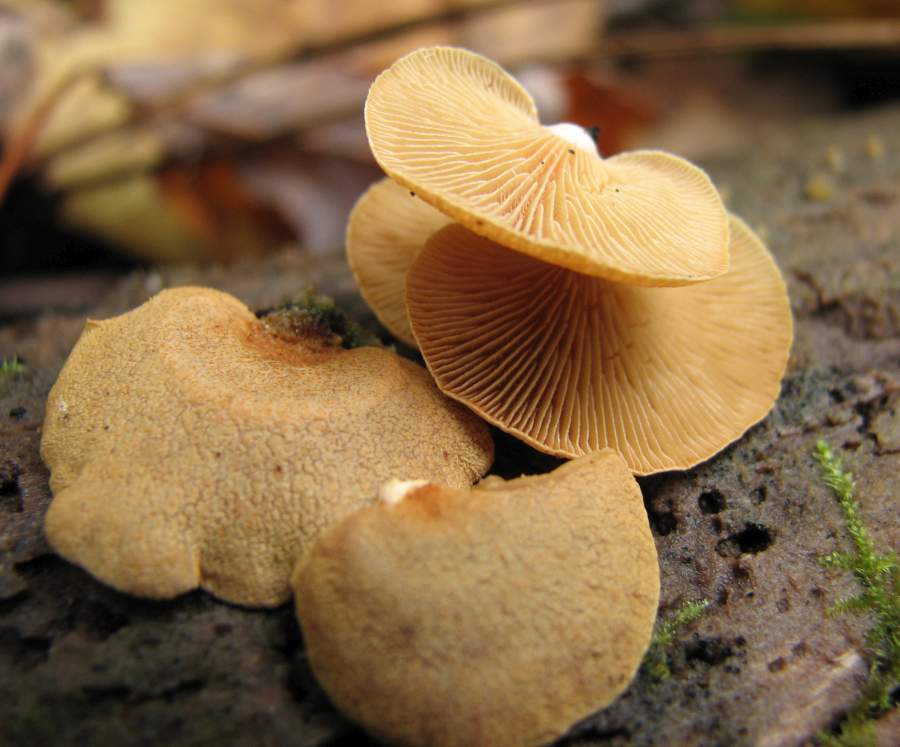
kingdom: Fungi
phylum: Basidiomycota
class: Agaricomycetes
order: Agaricales
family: Mycenaceae
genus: Panellus
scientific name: Panellus stipticus
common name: Bitter oysterling
